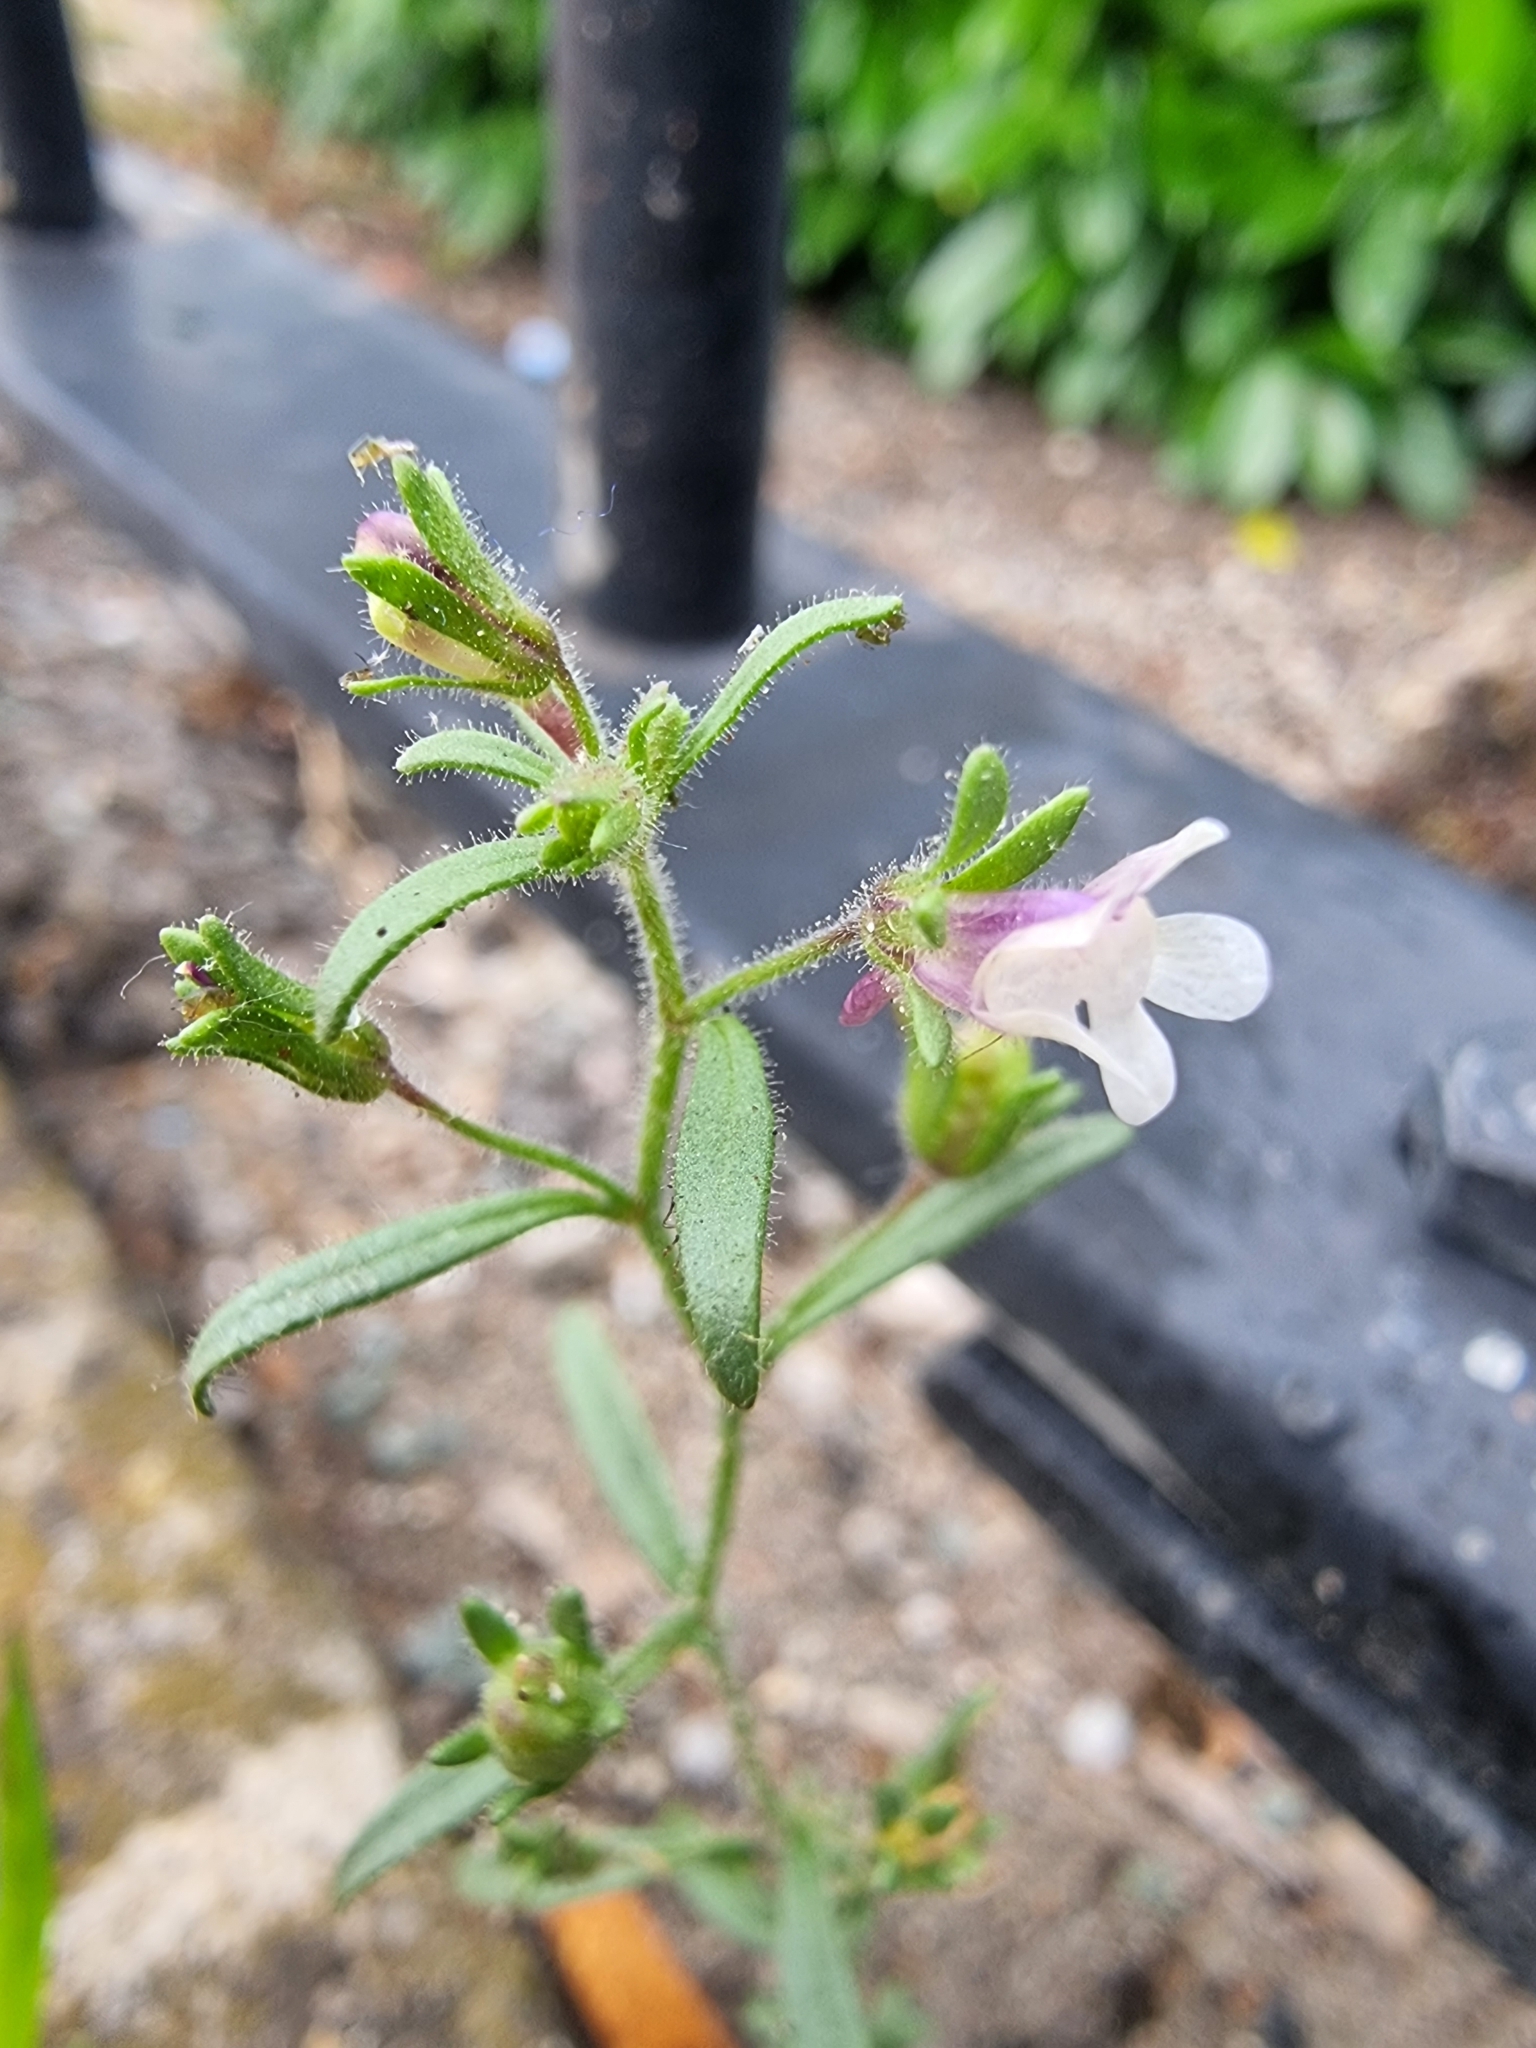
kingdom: Plantae
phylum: Tracheophyta
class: Magnoliopsida
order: Lamiales
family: Plantaginaceae
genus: Chaenorhinum
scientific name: Chaenorhinum minus
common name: Dwarf snapdragon
